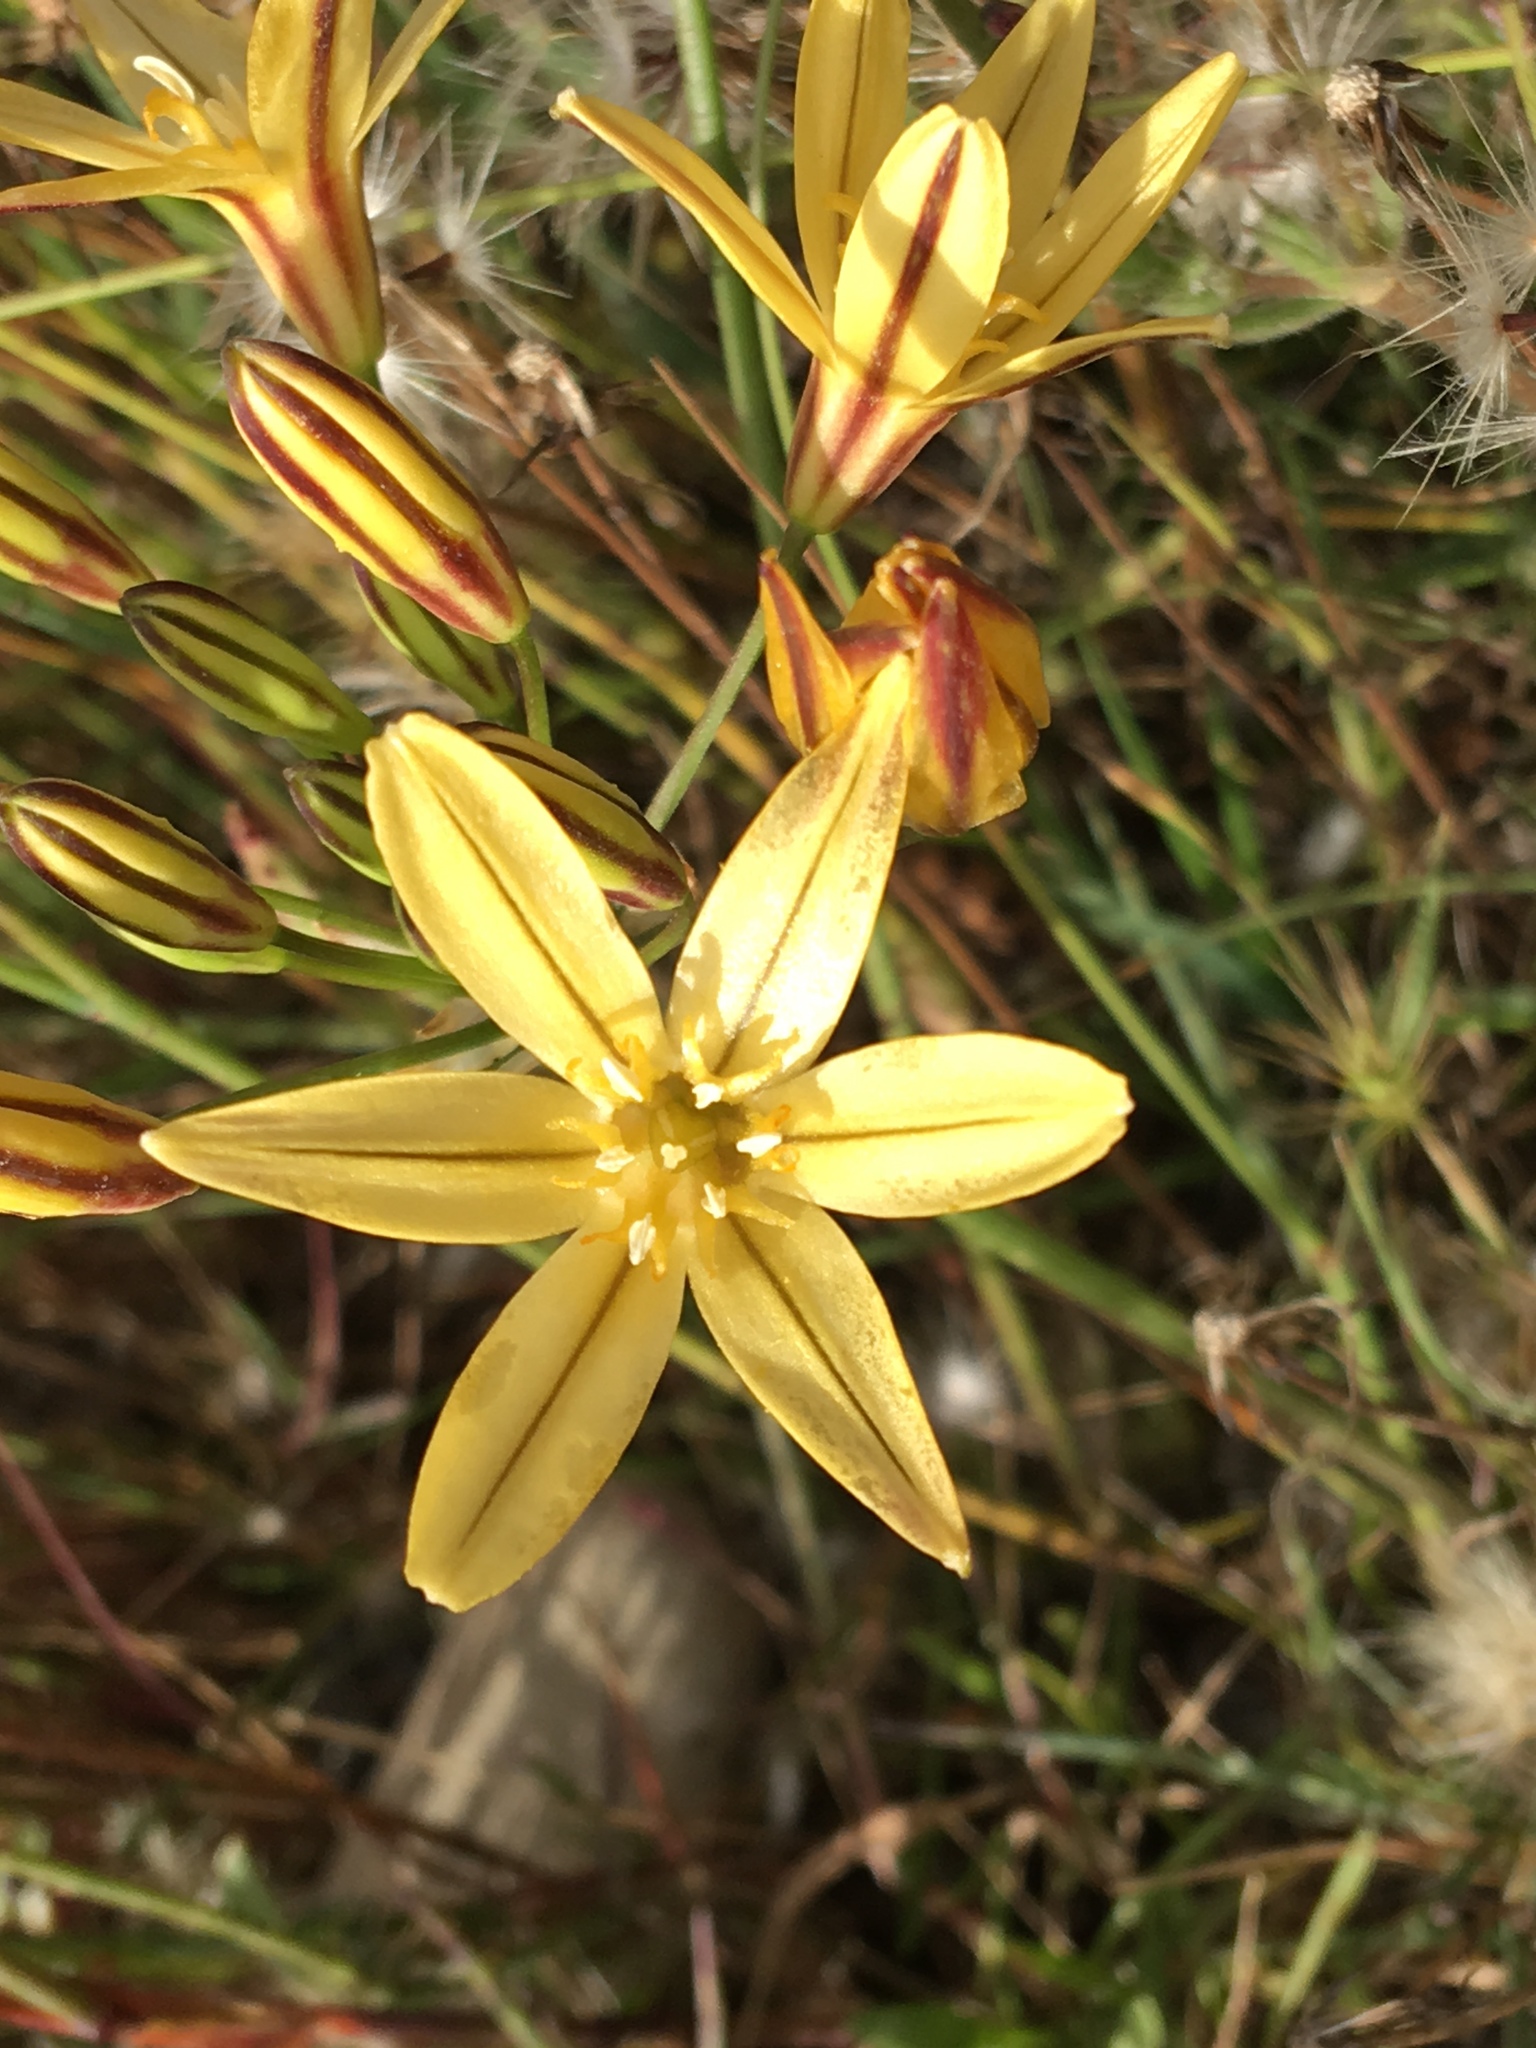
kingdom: Plantae
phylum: Tracheophyta
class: Liliopsida
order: Asparagales
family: Asparagaceae
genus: Triteleia
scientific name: Triteleia ixioides
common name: Yellow-brodiaea
